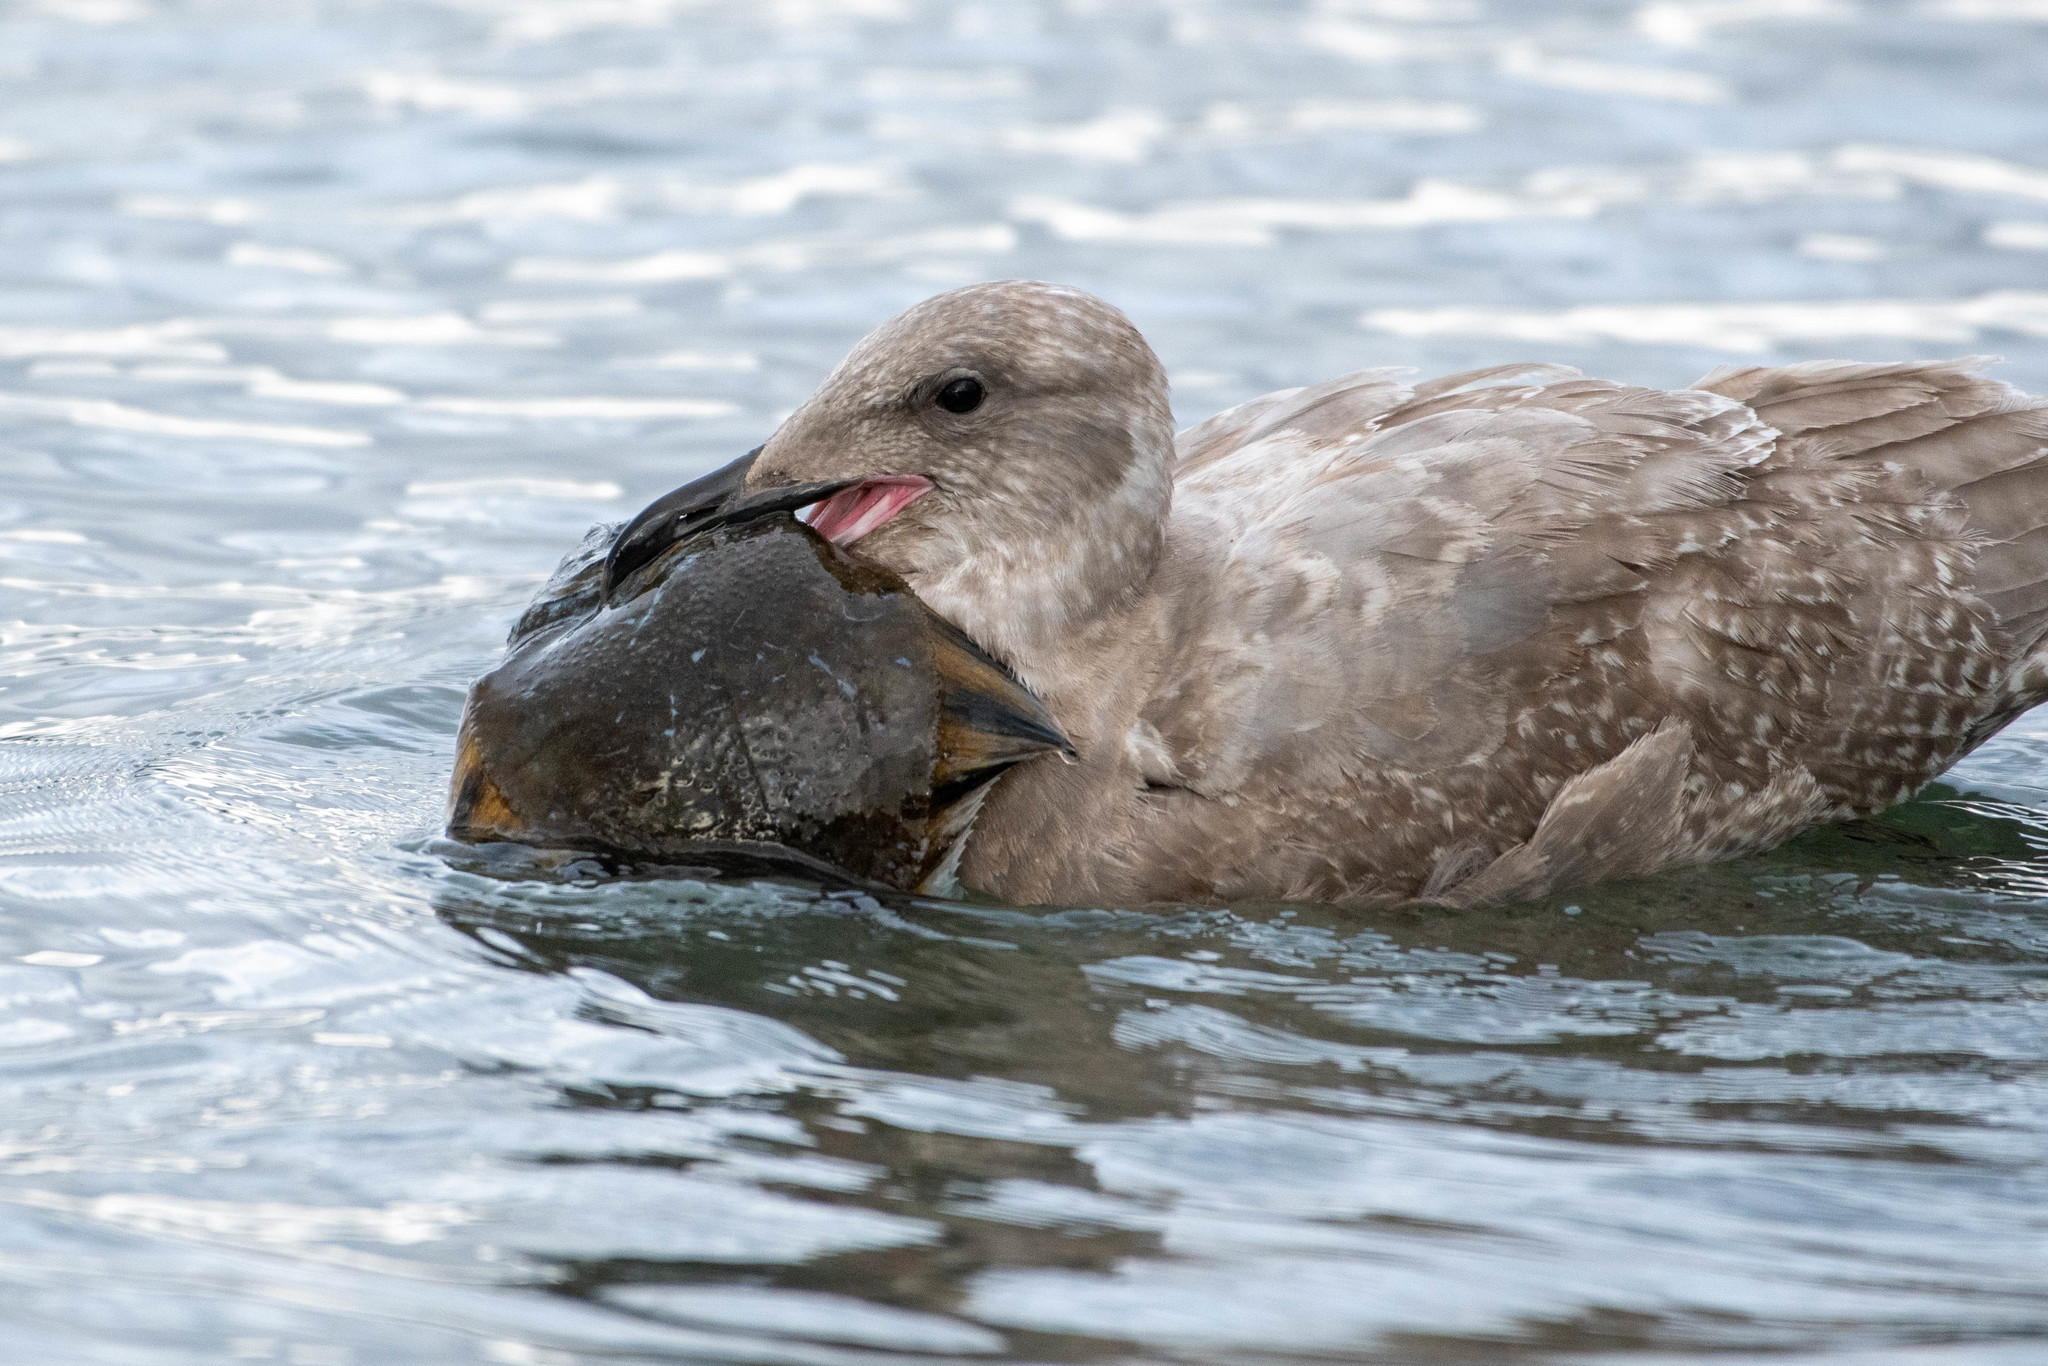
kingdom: Animalia
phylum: Chordata
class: Aves
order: Charadriiformes
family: Laridae
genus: Larus
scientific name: Larus glaucescens
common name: Glaucous-winged gull
